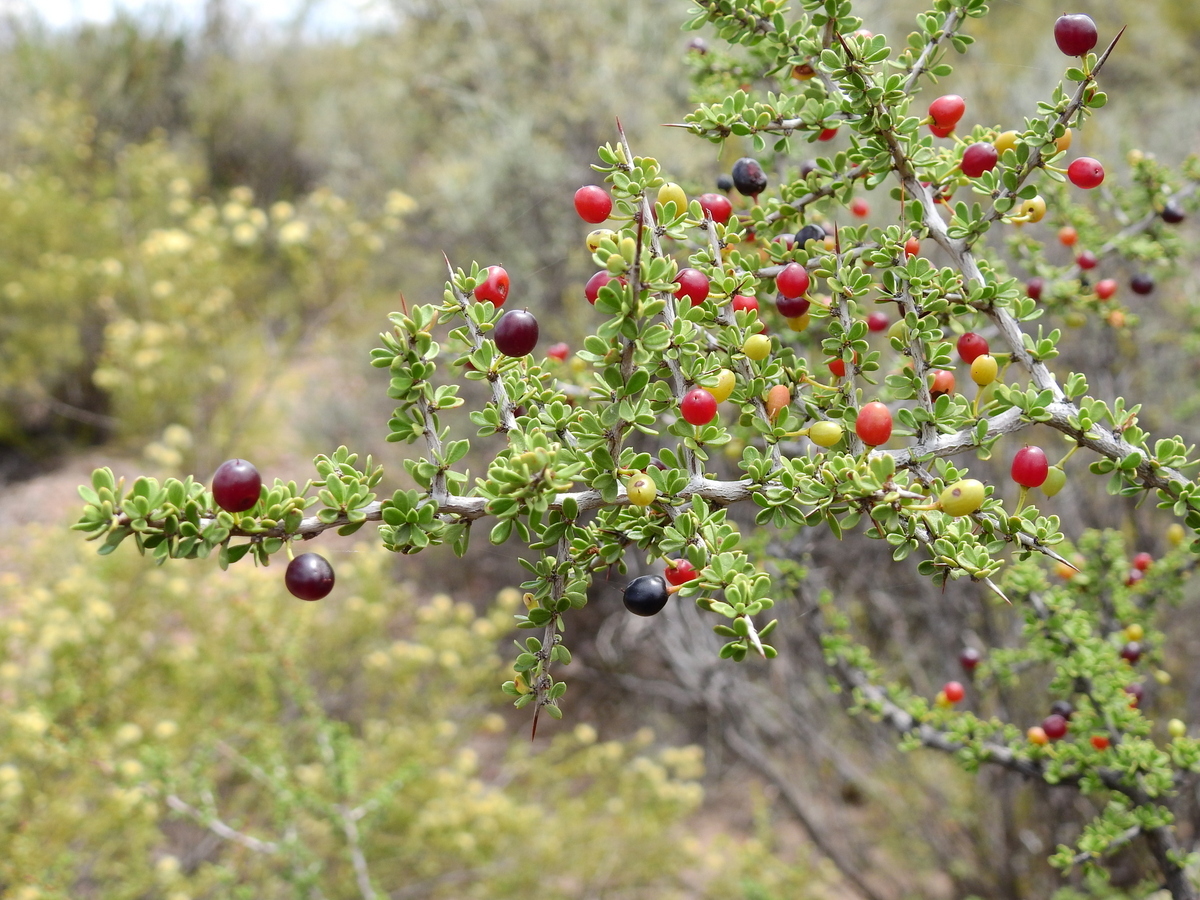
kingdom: Plantae
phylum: Tracheophyta
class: Magnoliopsida
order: Rosales
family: Rhamnaceae
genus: Condalia
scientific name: Condalia microphylla
